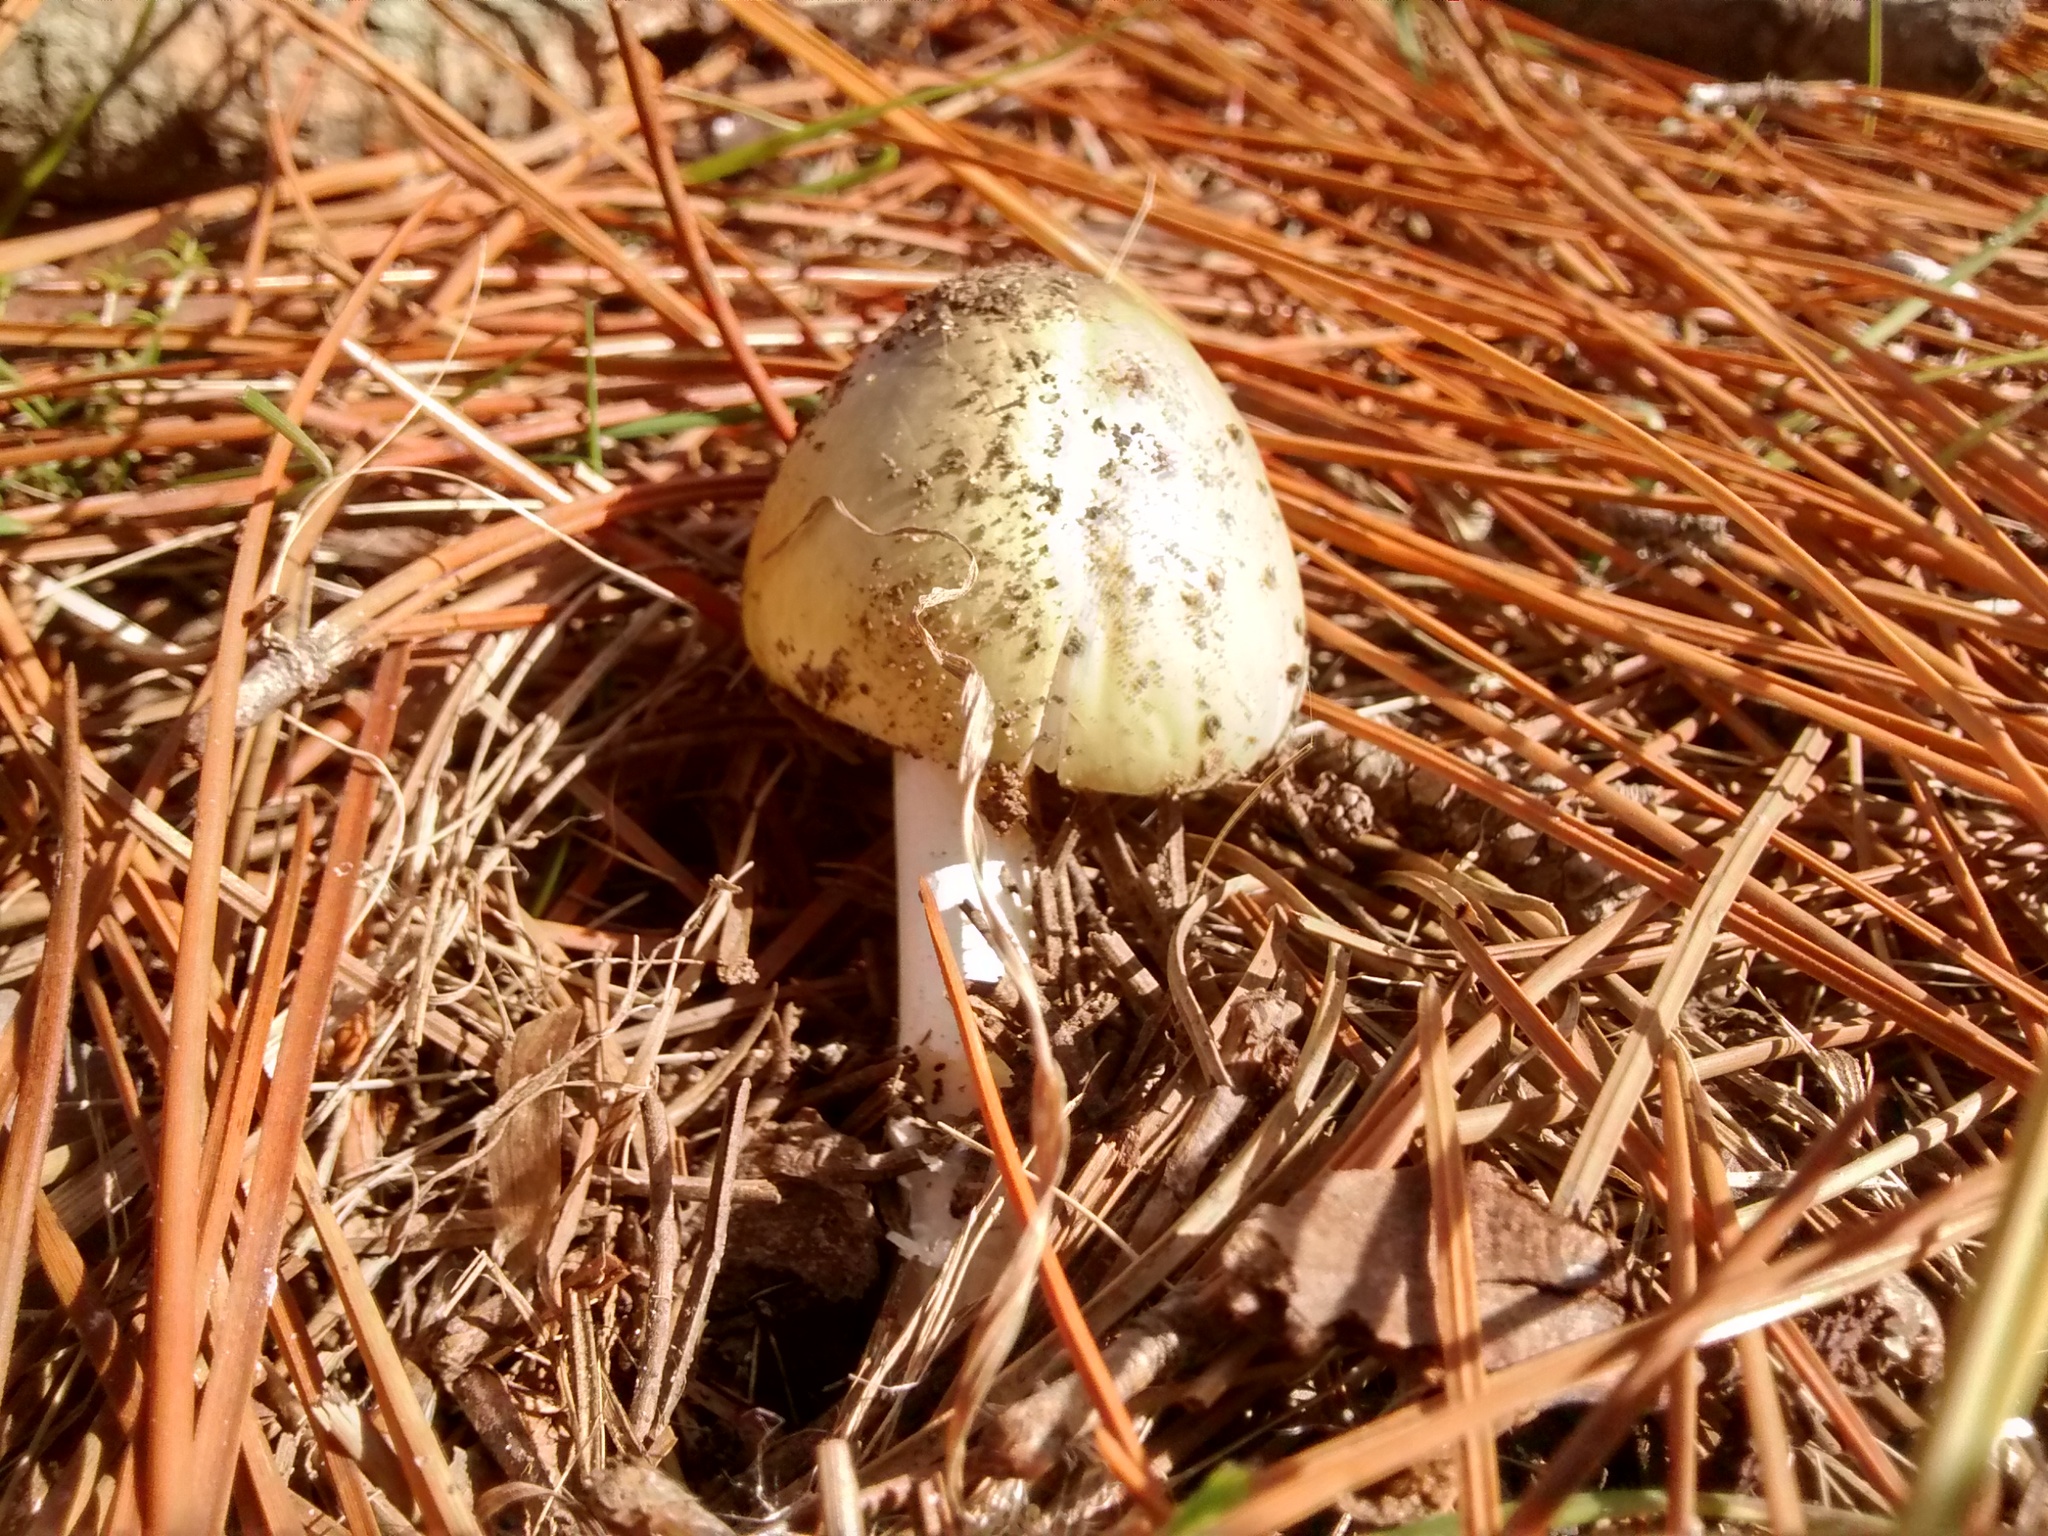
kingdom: Fungi
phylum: Basidiomycota
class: Agaricomycetes
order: Agaricales
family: Amanitaceae
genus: Amanita
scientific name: Amanita phalloides
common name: Death cap
